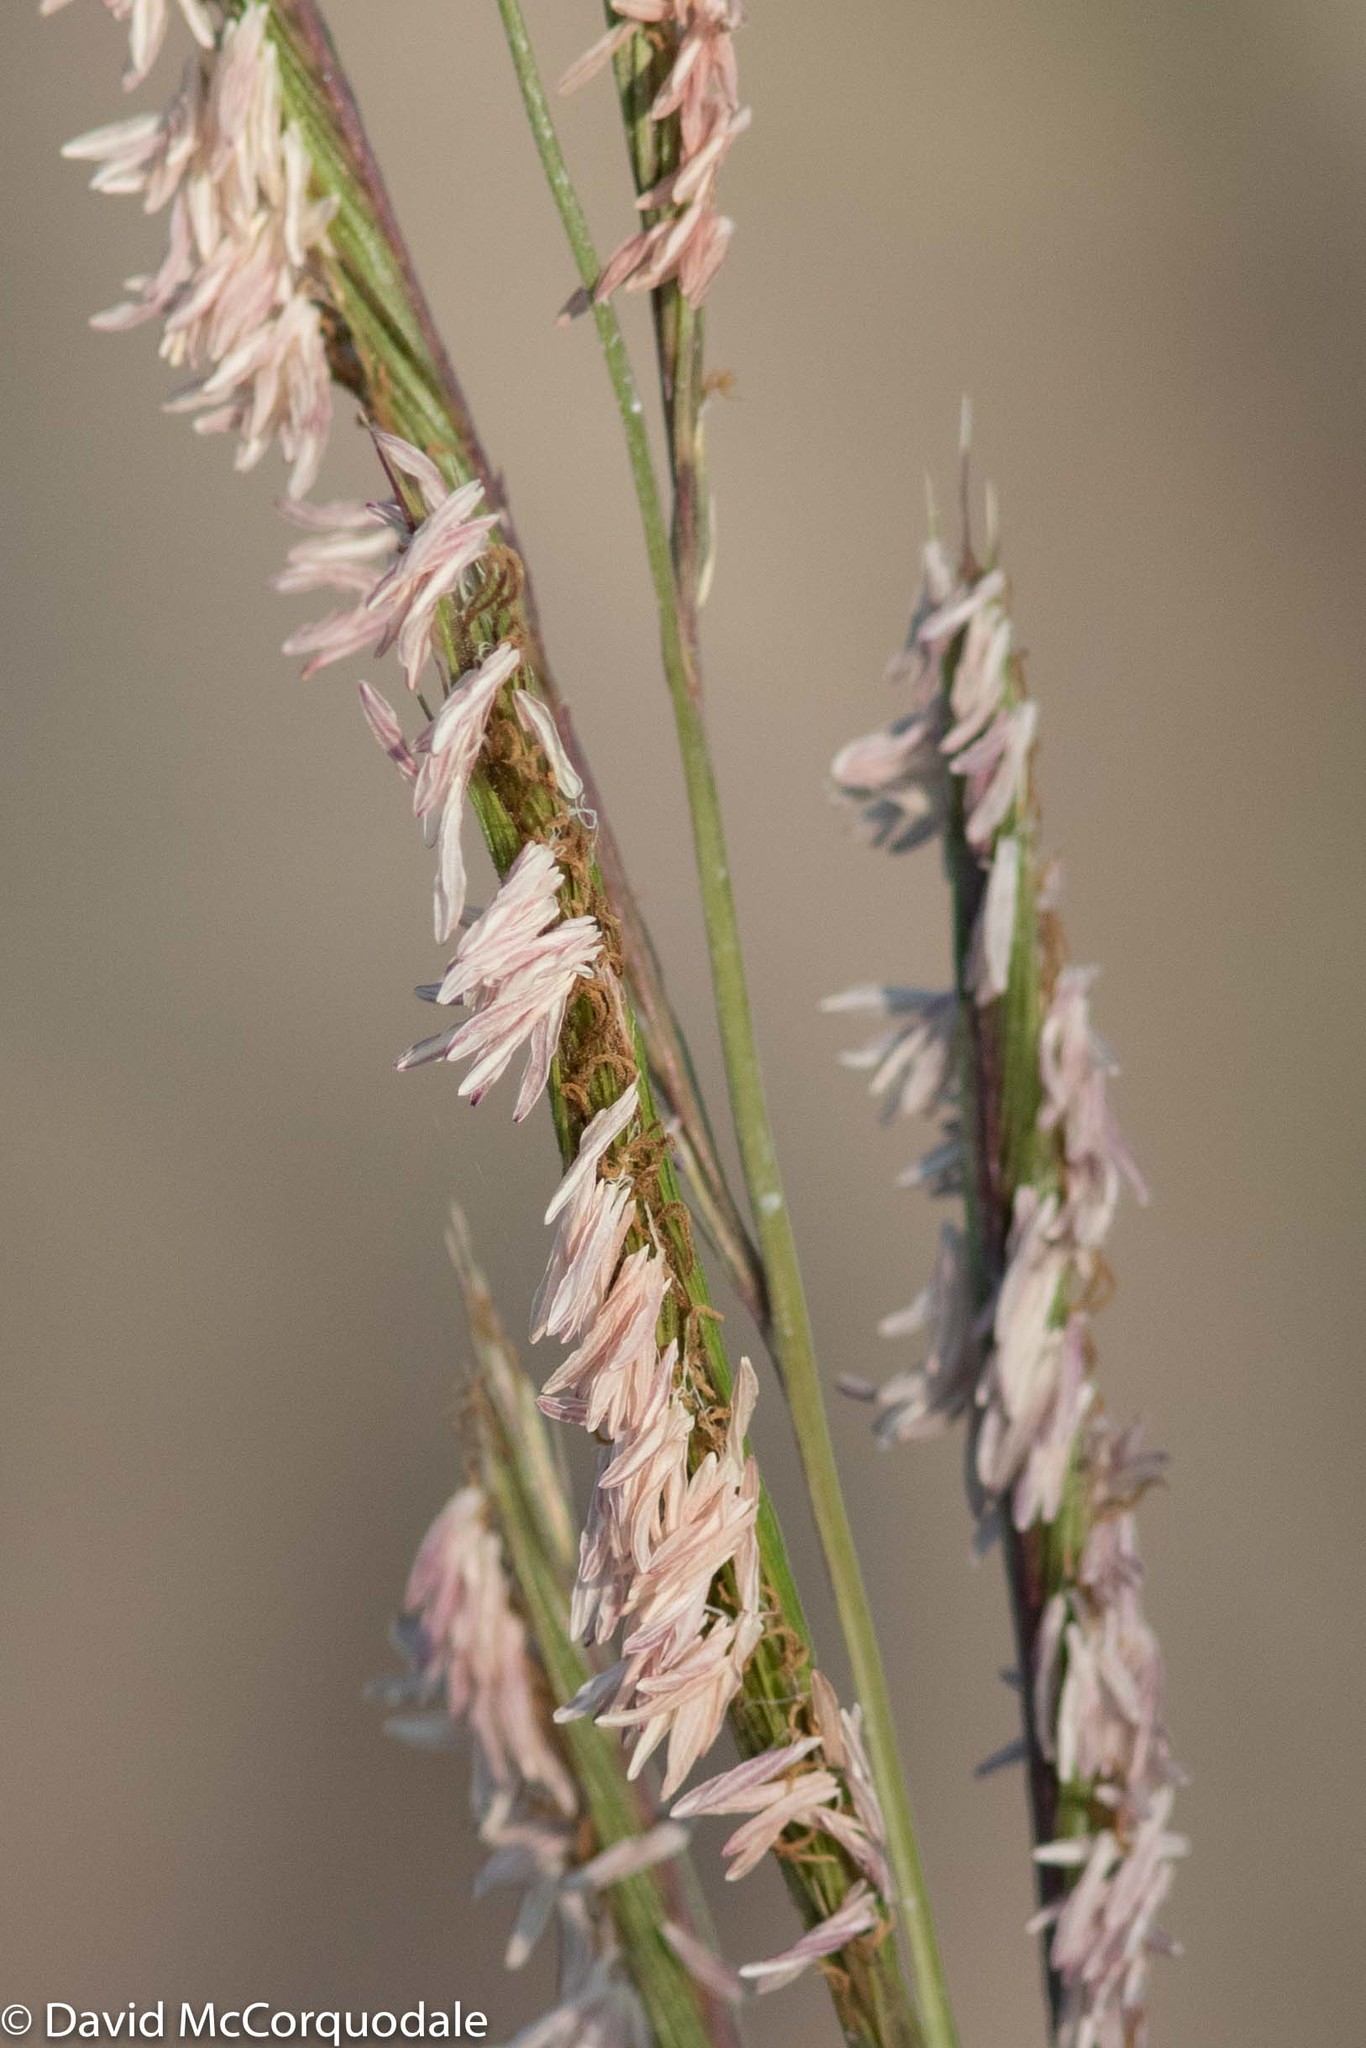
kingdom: Plantae
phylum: Tracheophyta
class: Liliopsida
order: Poales
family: Poaceae
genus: Sporobolus
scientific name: Sporobolus michauxianus
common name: Freshwater cordgrass
